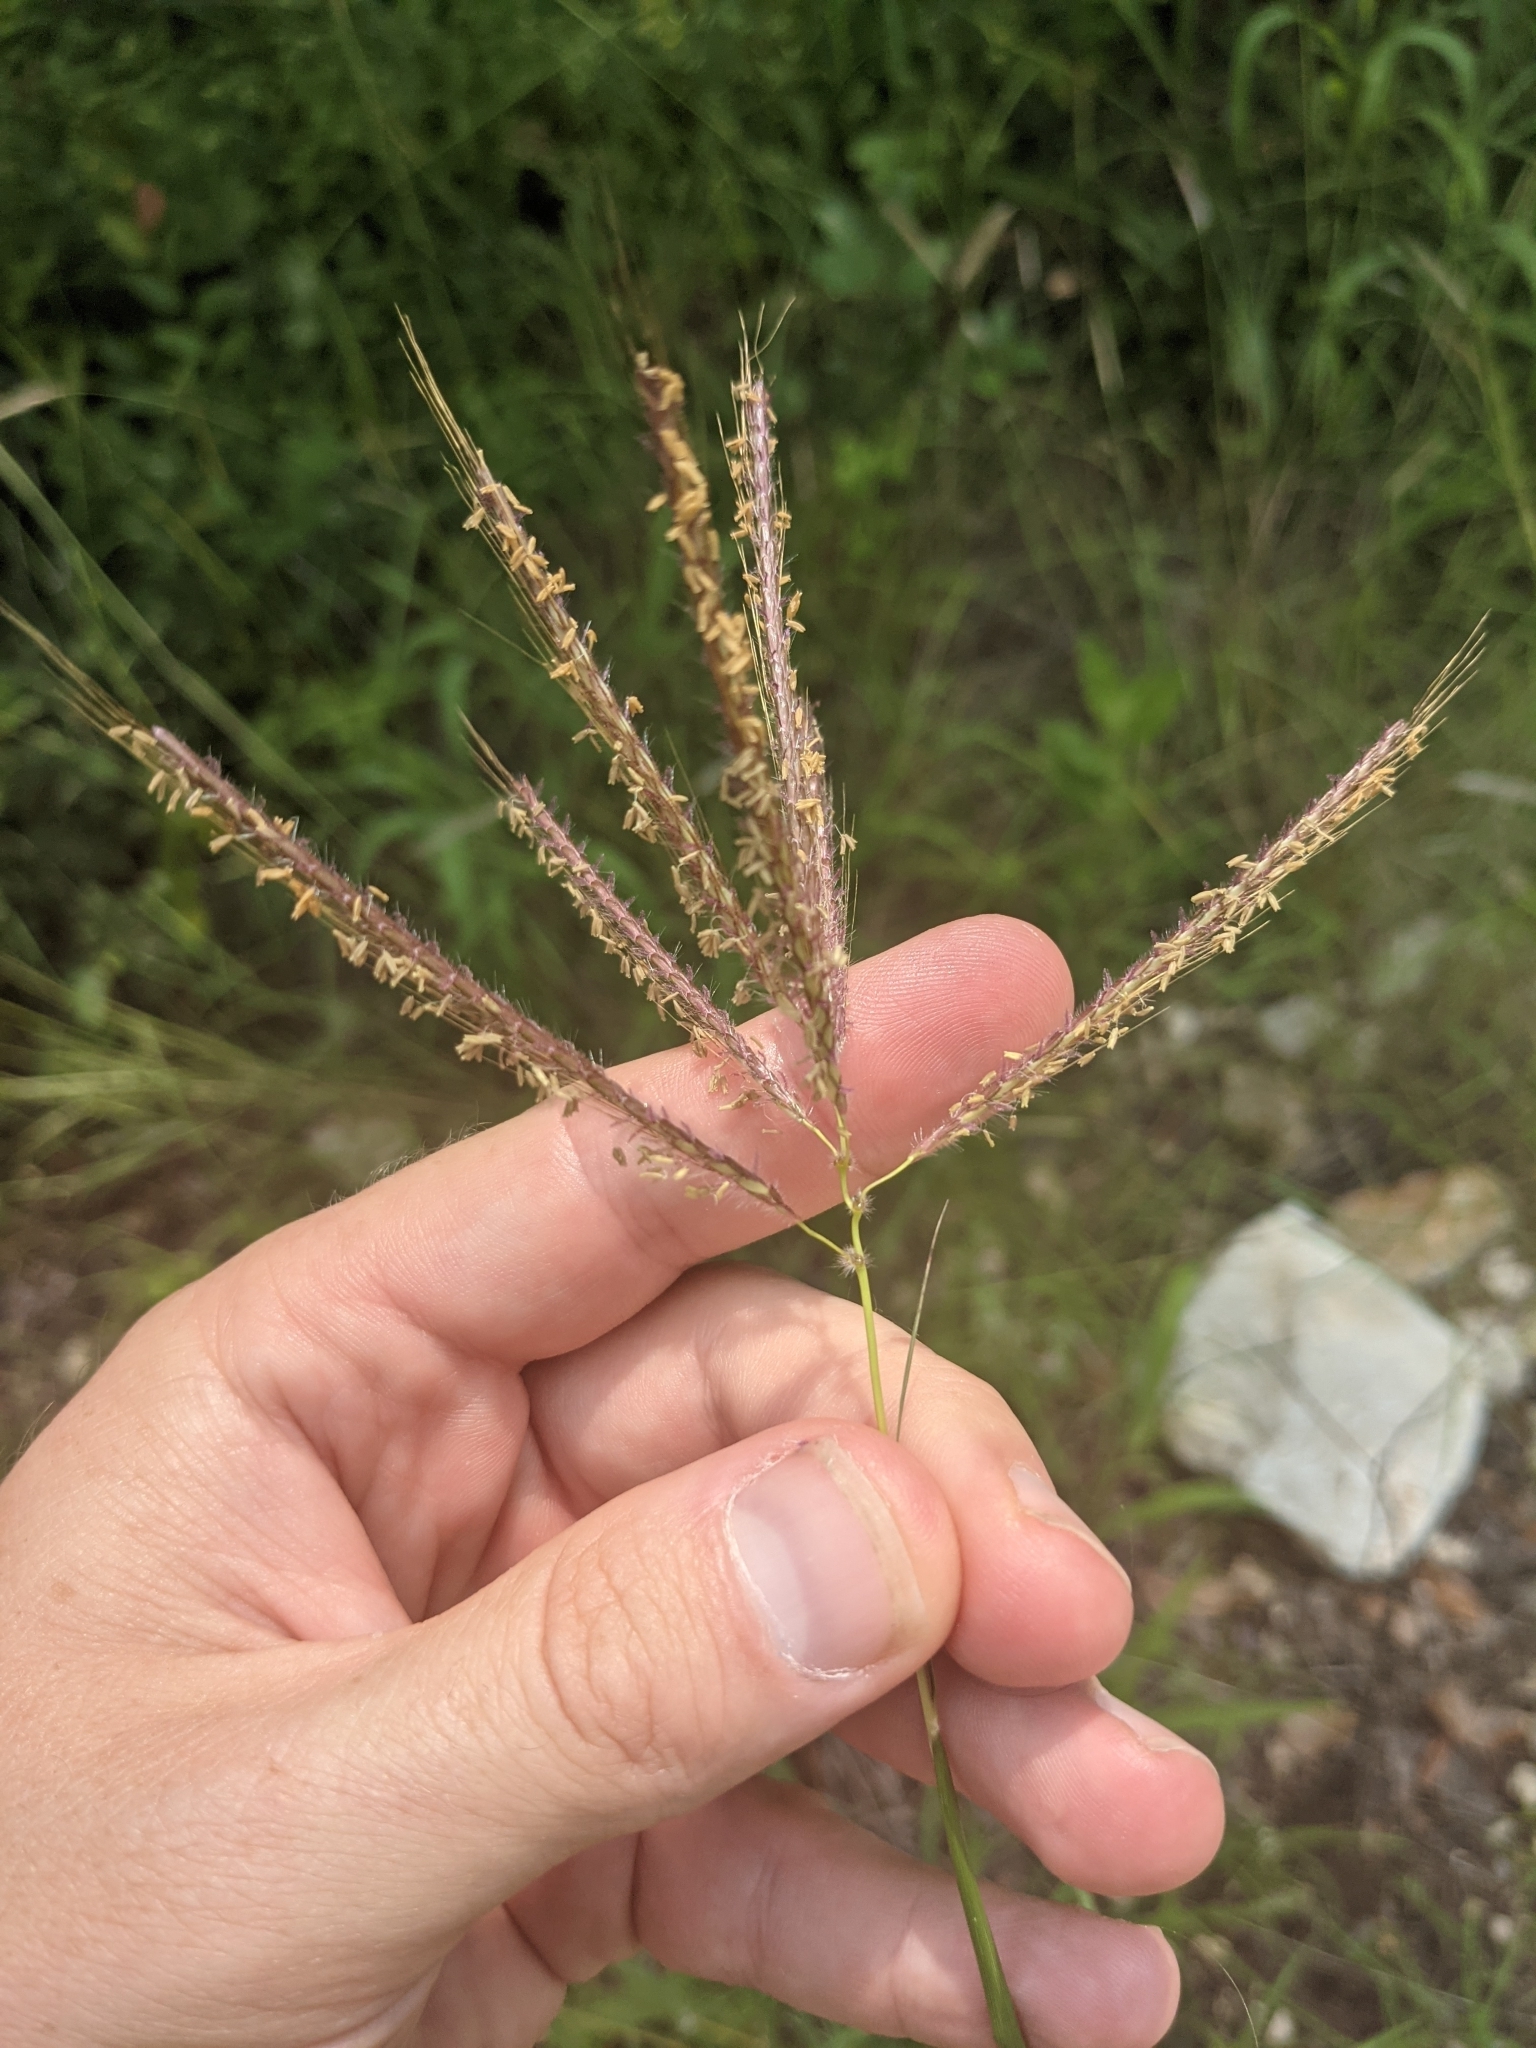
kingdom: Plantae
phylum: Tracheophyta
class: Liliopsida
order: Poales
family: Poaceae
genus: Dichanthium
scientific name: Dichanthium annulatum
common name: Kleberg's bluestem
